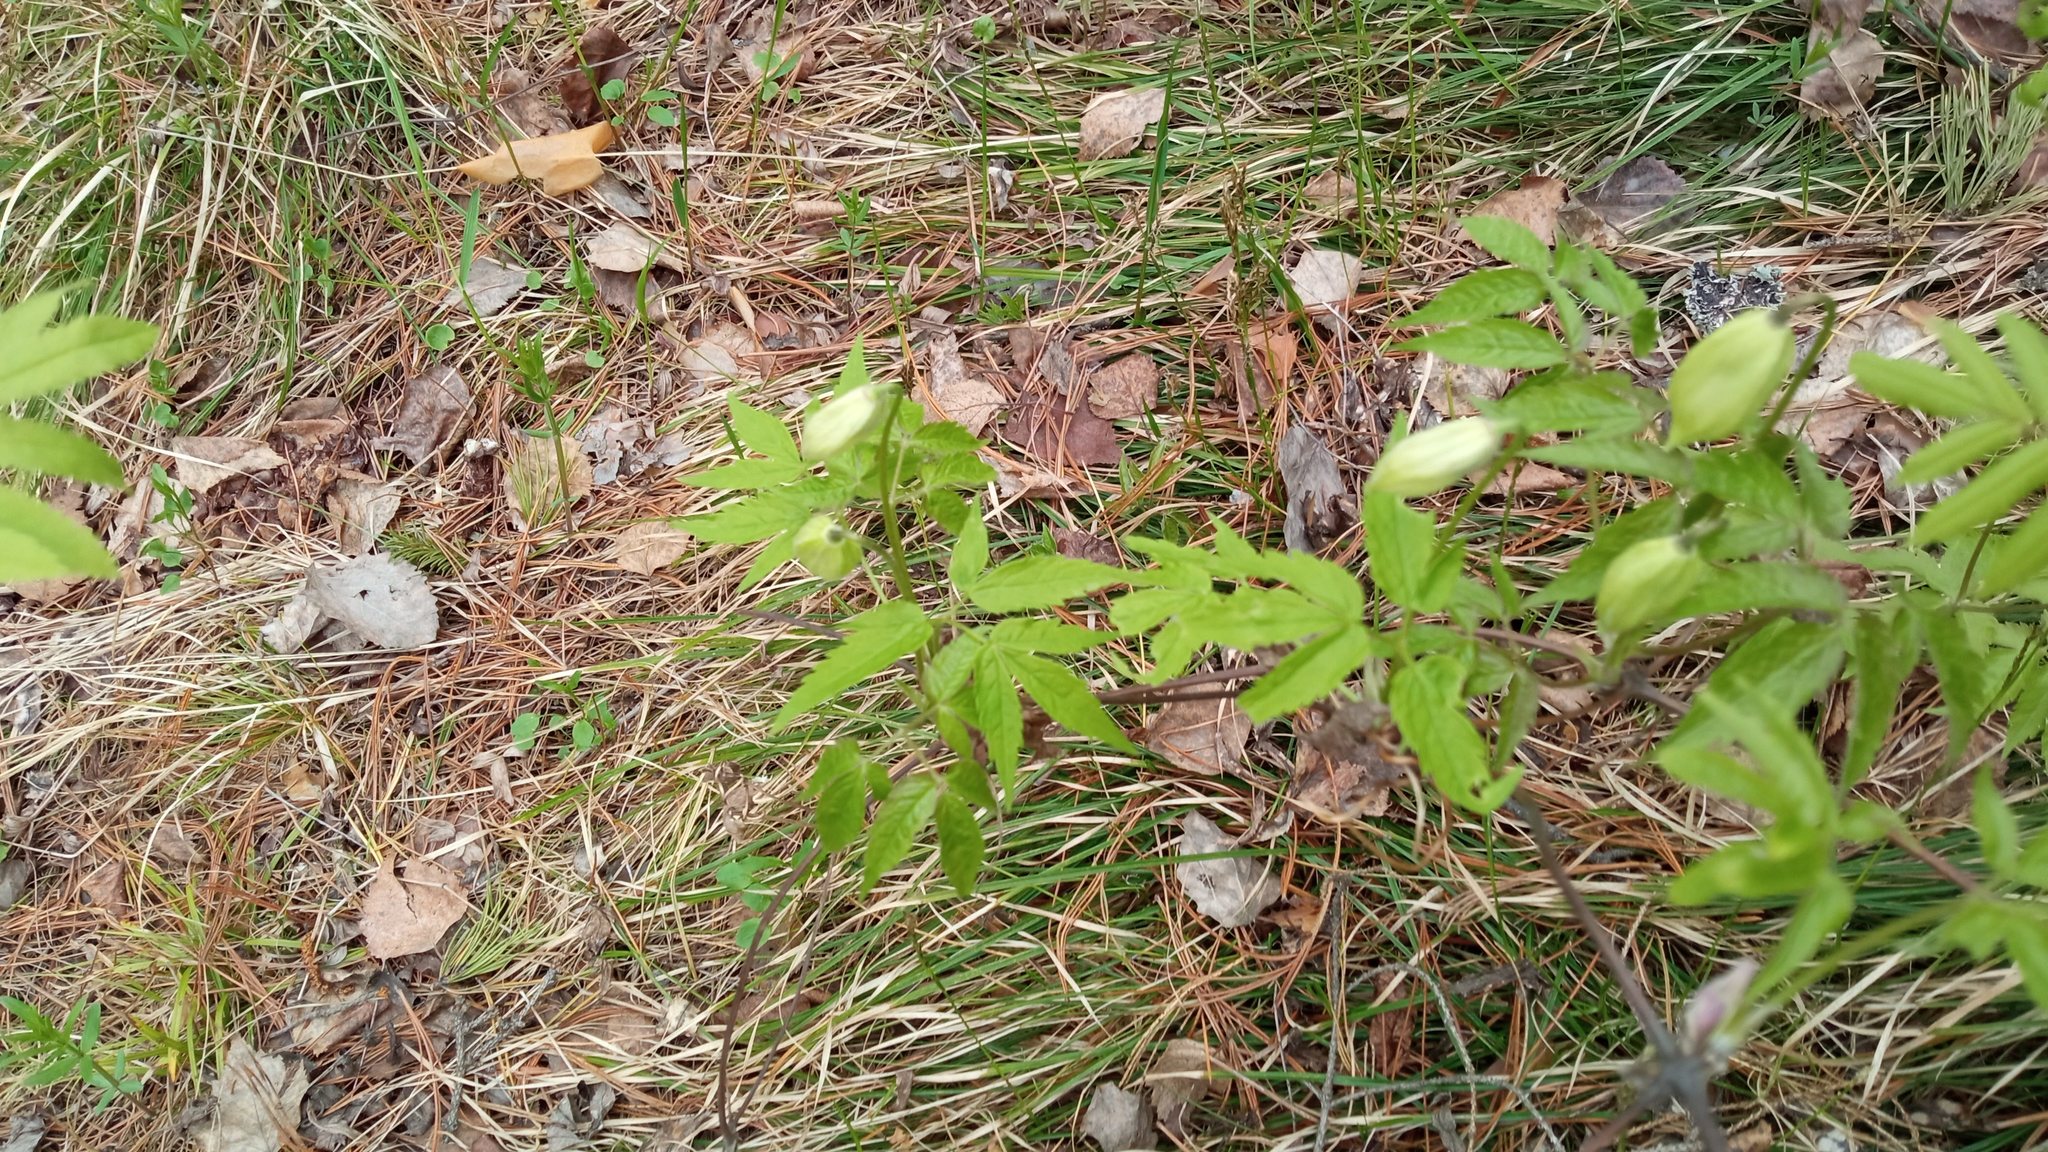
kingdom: Plantae
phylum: Tracheophyta
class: Magnoliopsida
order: Ranunculales
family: Ranunculaceae
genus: Clematis
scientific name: Clematis sibirica
